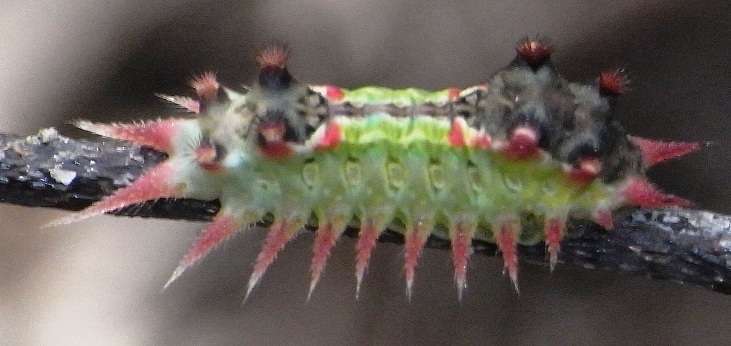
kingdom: Animalia
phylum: Arthropoda
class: Insecta
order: Lepidoptera
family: Limacodidae
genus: Doratifera
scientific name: Doratifera oxleyi
